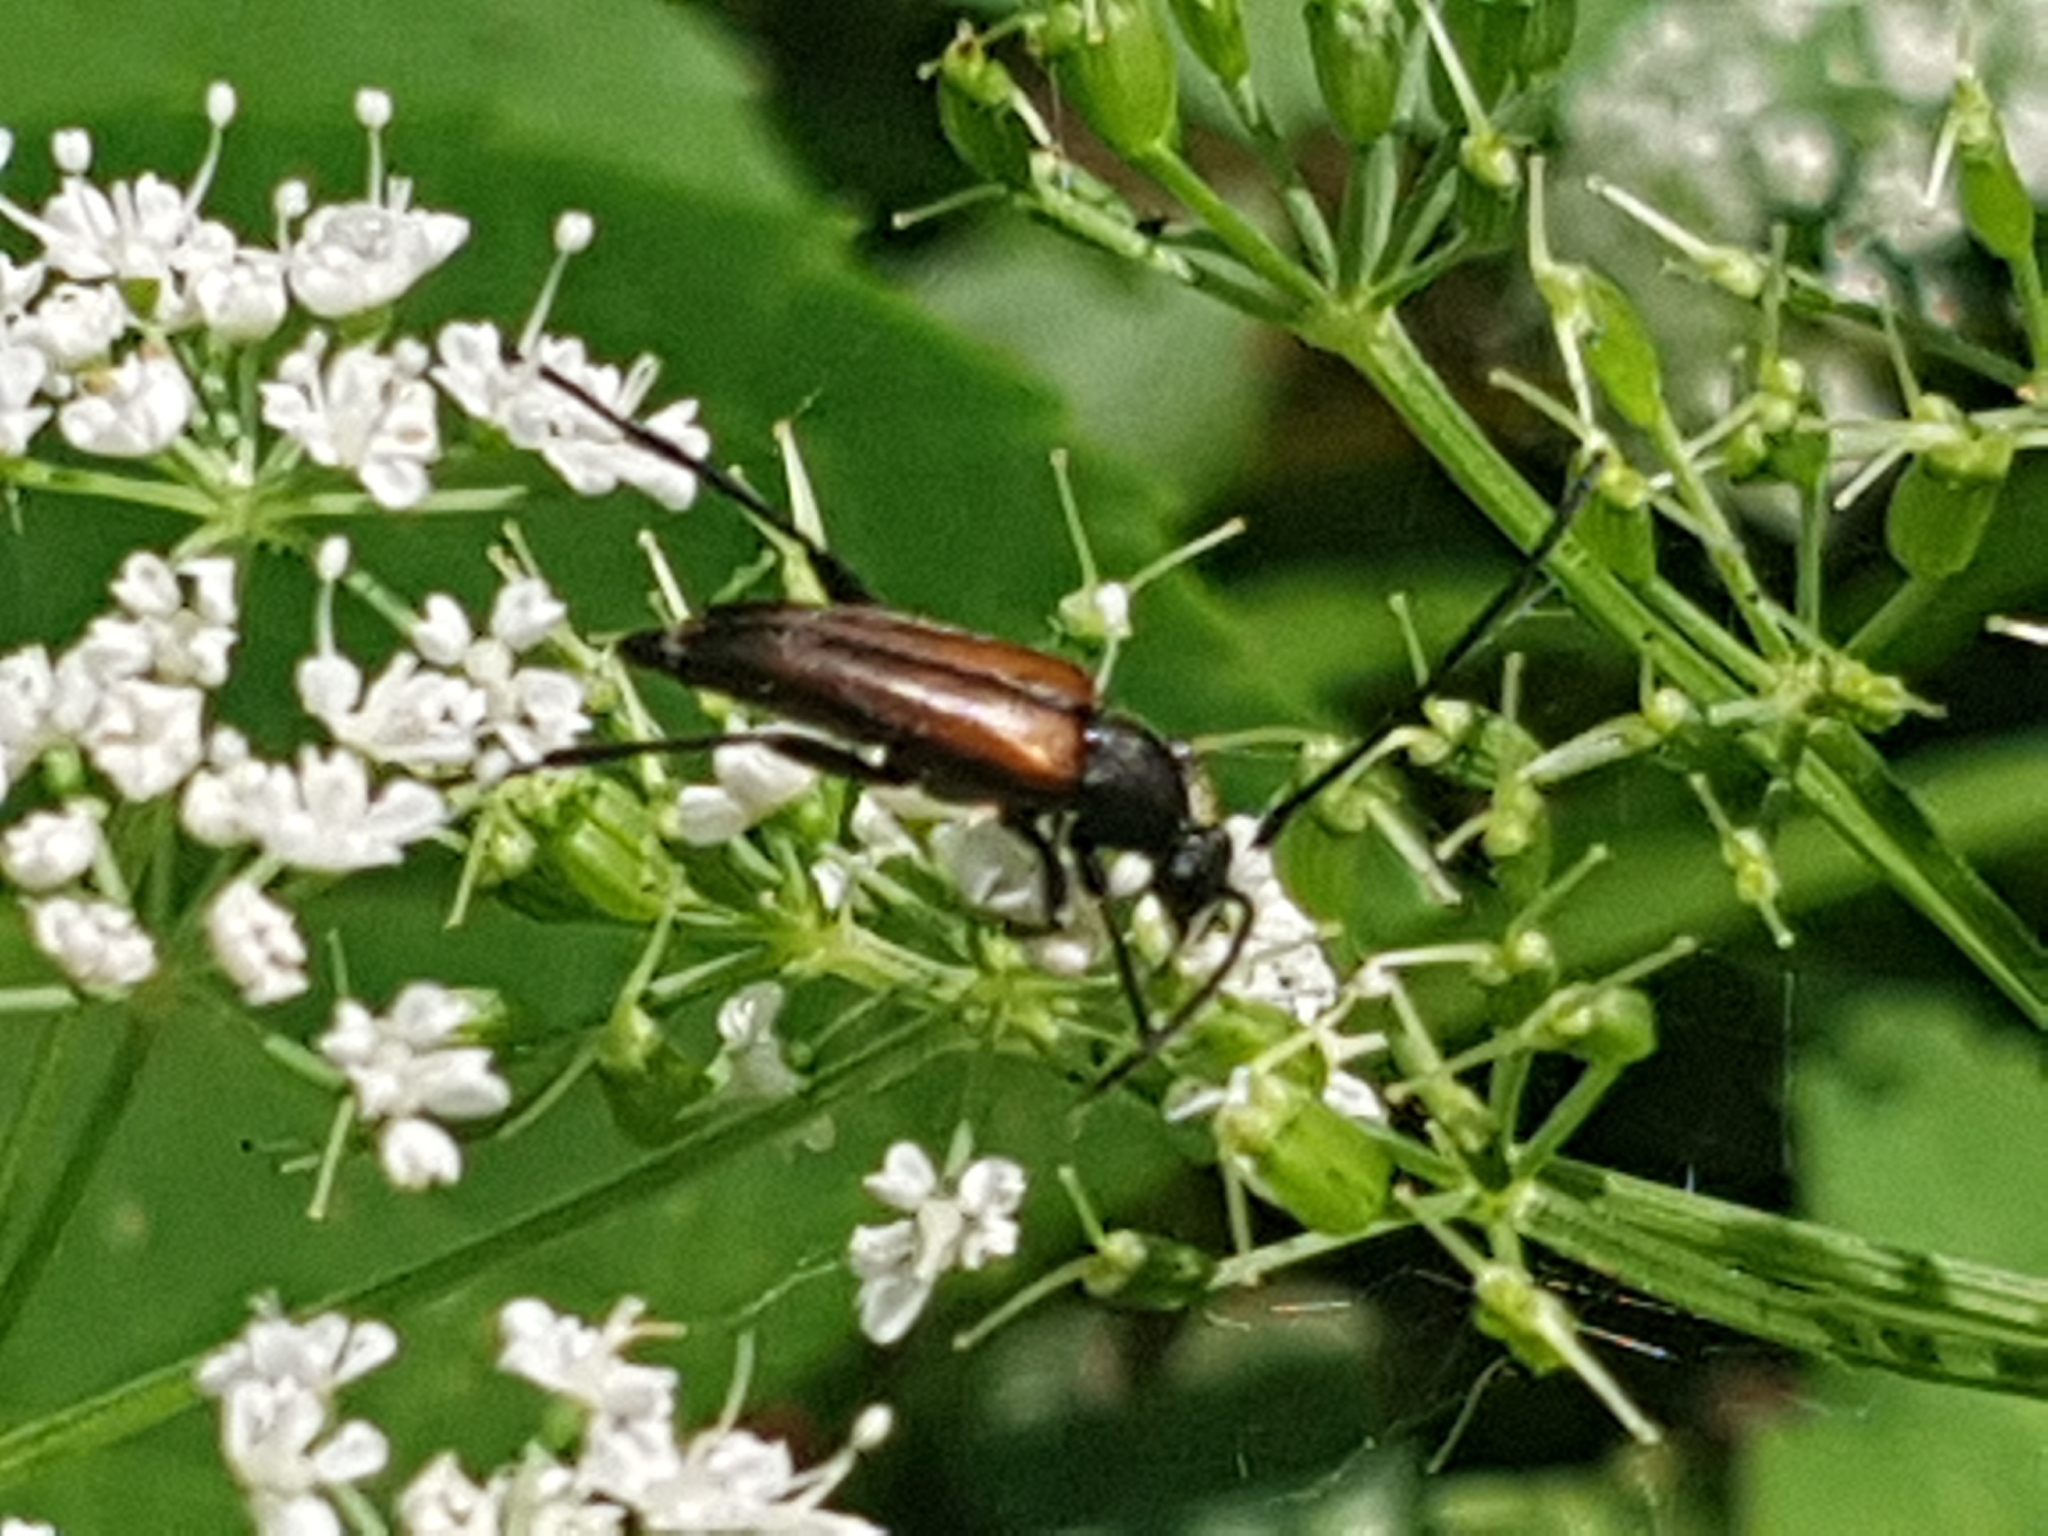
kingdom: Animalia
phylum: Arthropoda
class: Insecta
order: Coleoptera
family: Cerambycidae
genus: Stenurella
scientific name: Stenurella melanura
